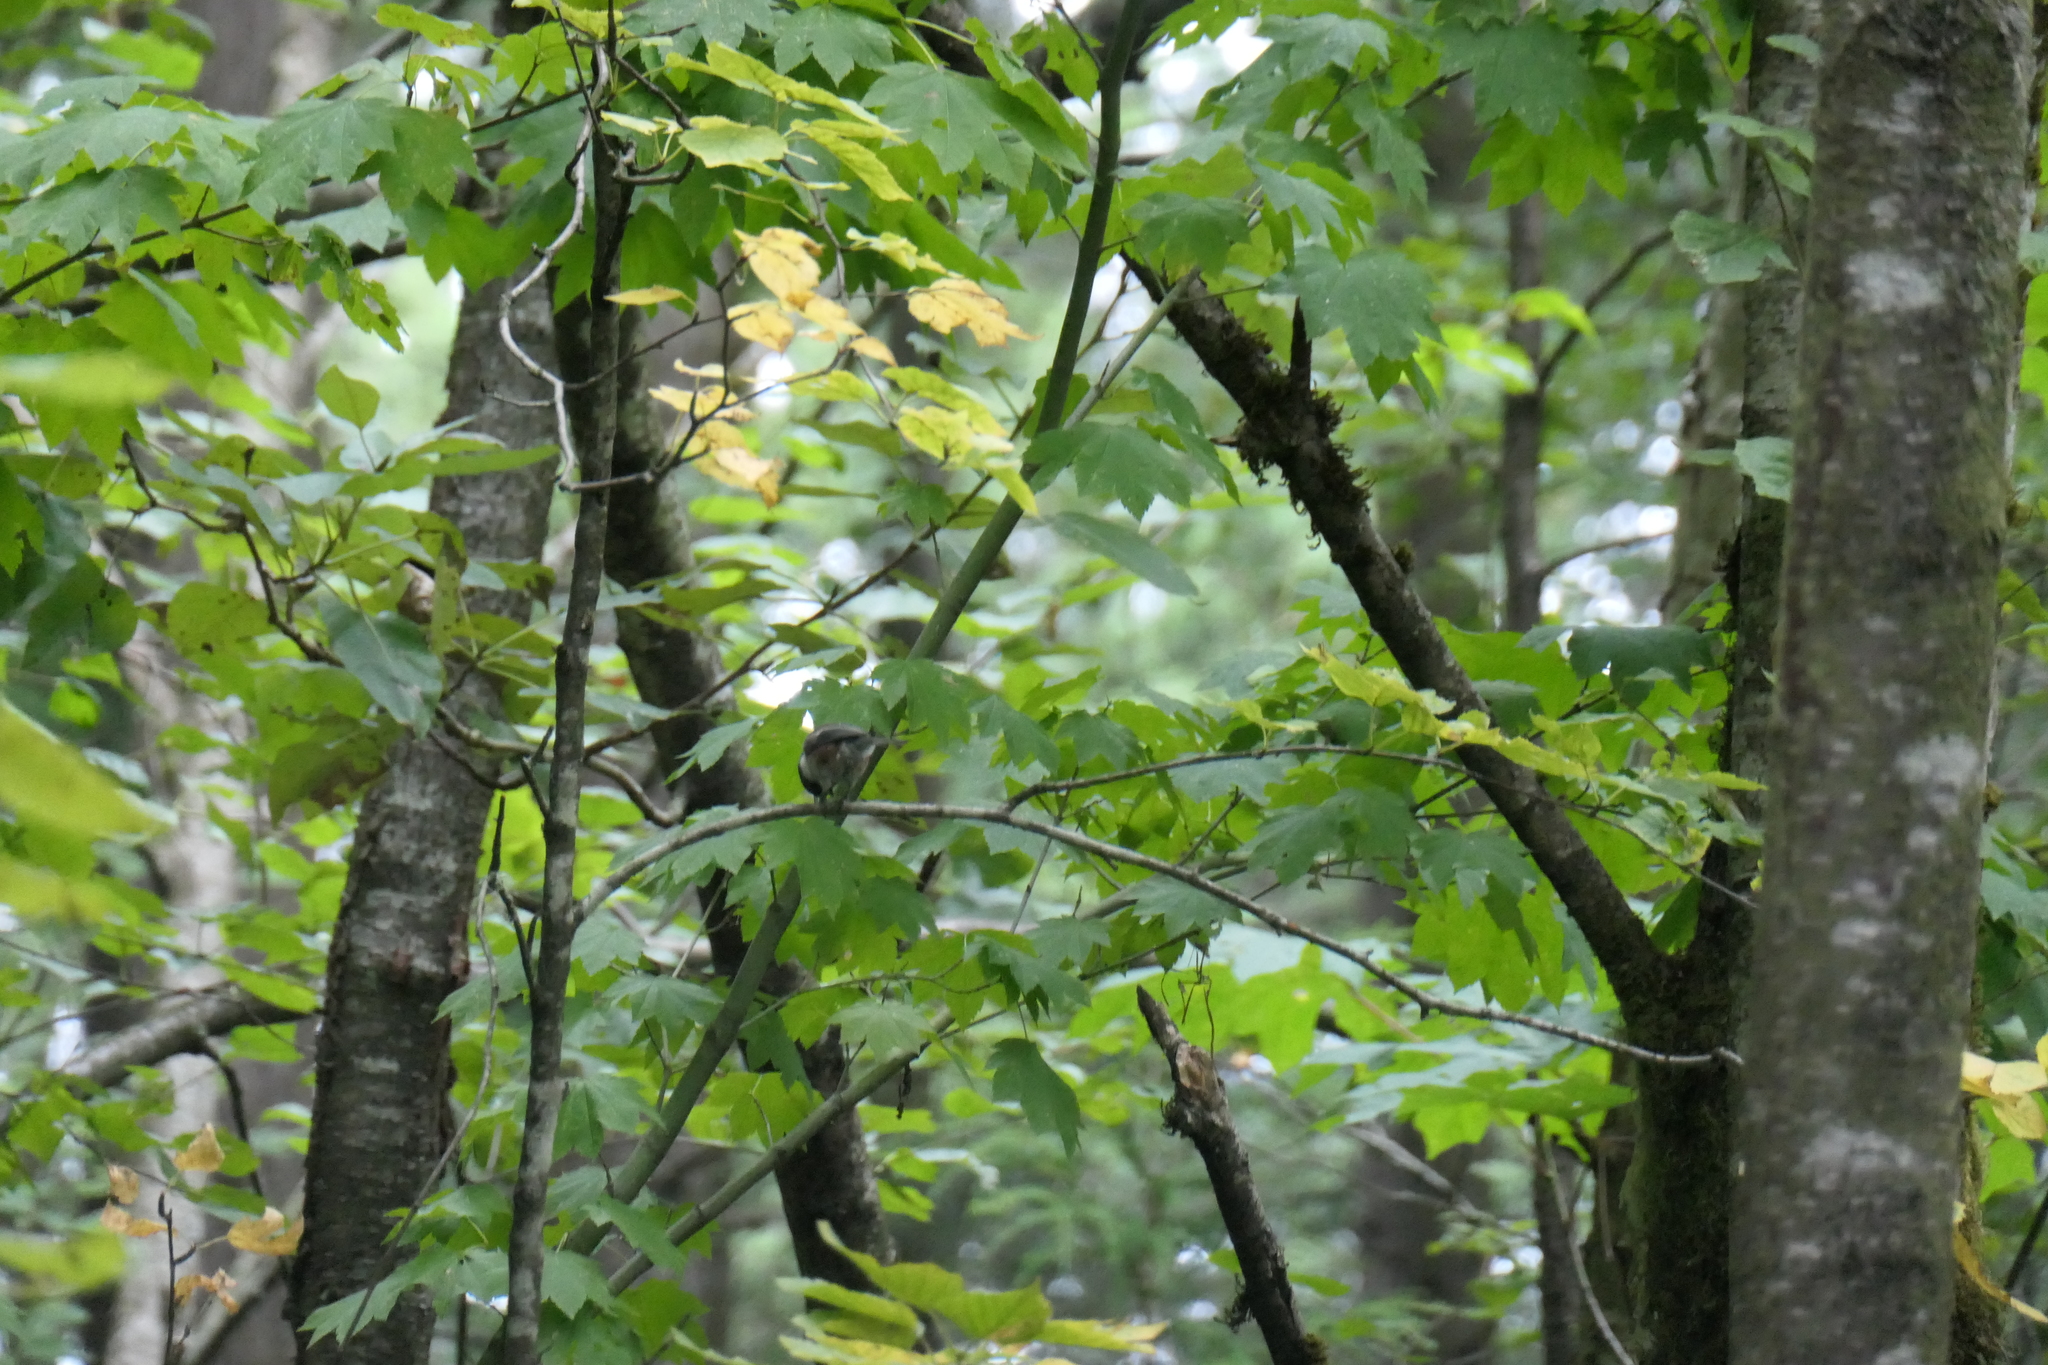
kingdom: Animalia
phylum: Chordata
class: Aves
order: Passeriformes
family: Paridae
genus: Poecile
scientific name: Poecile rufescens
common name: Chestnut-backed chickadee
